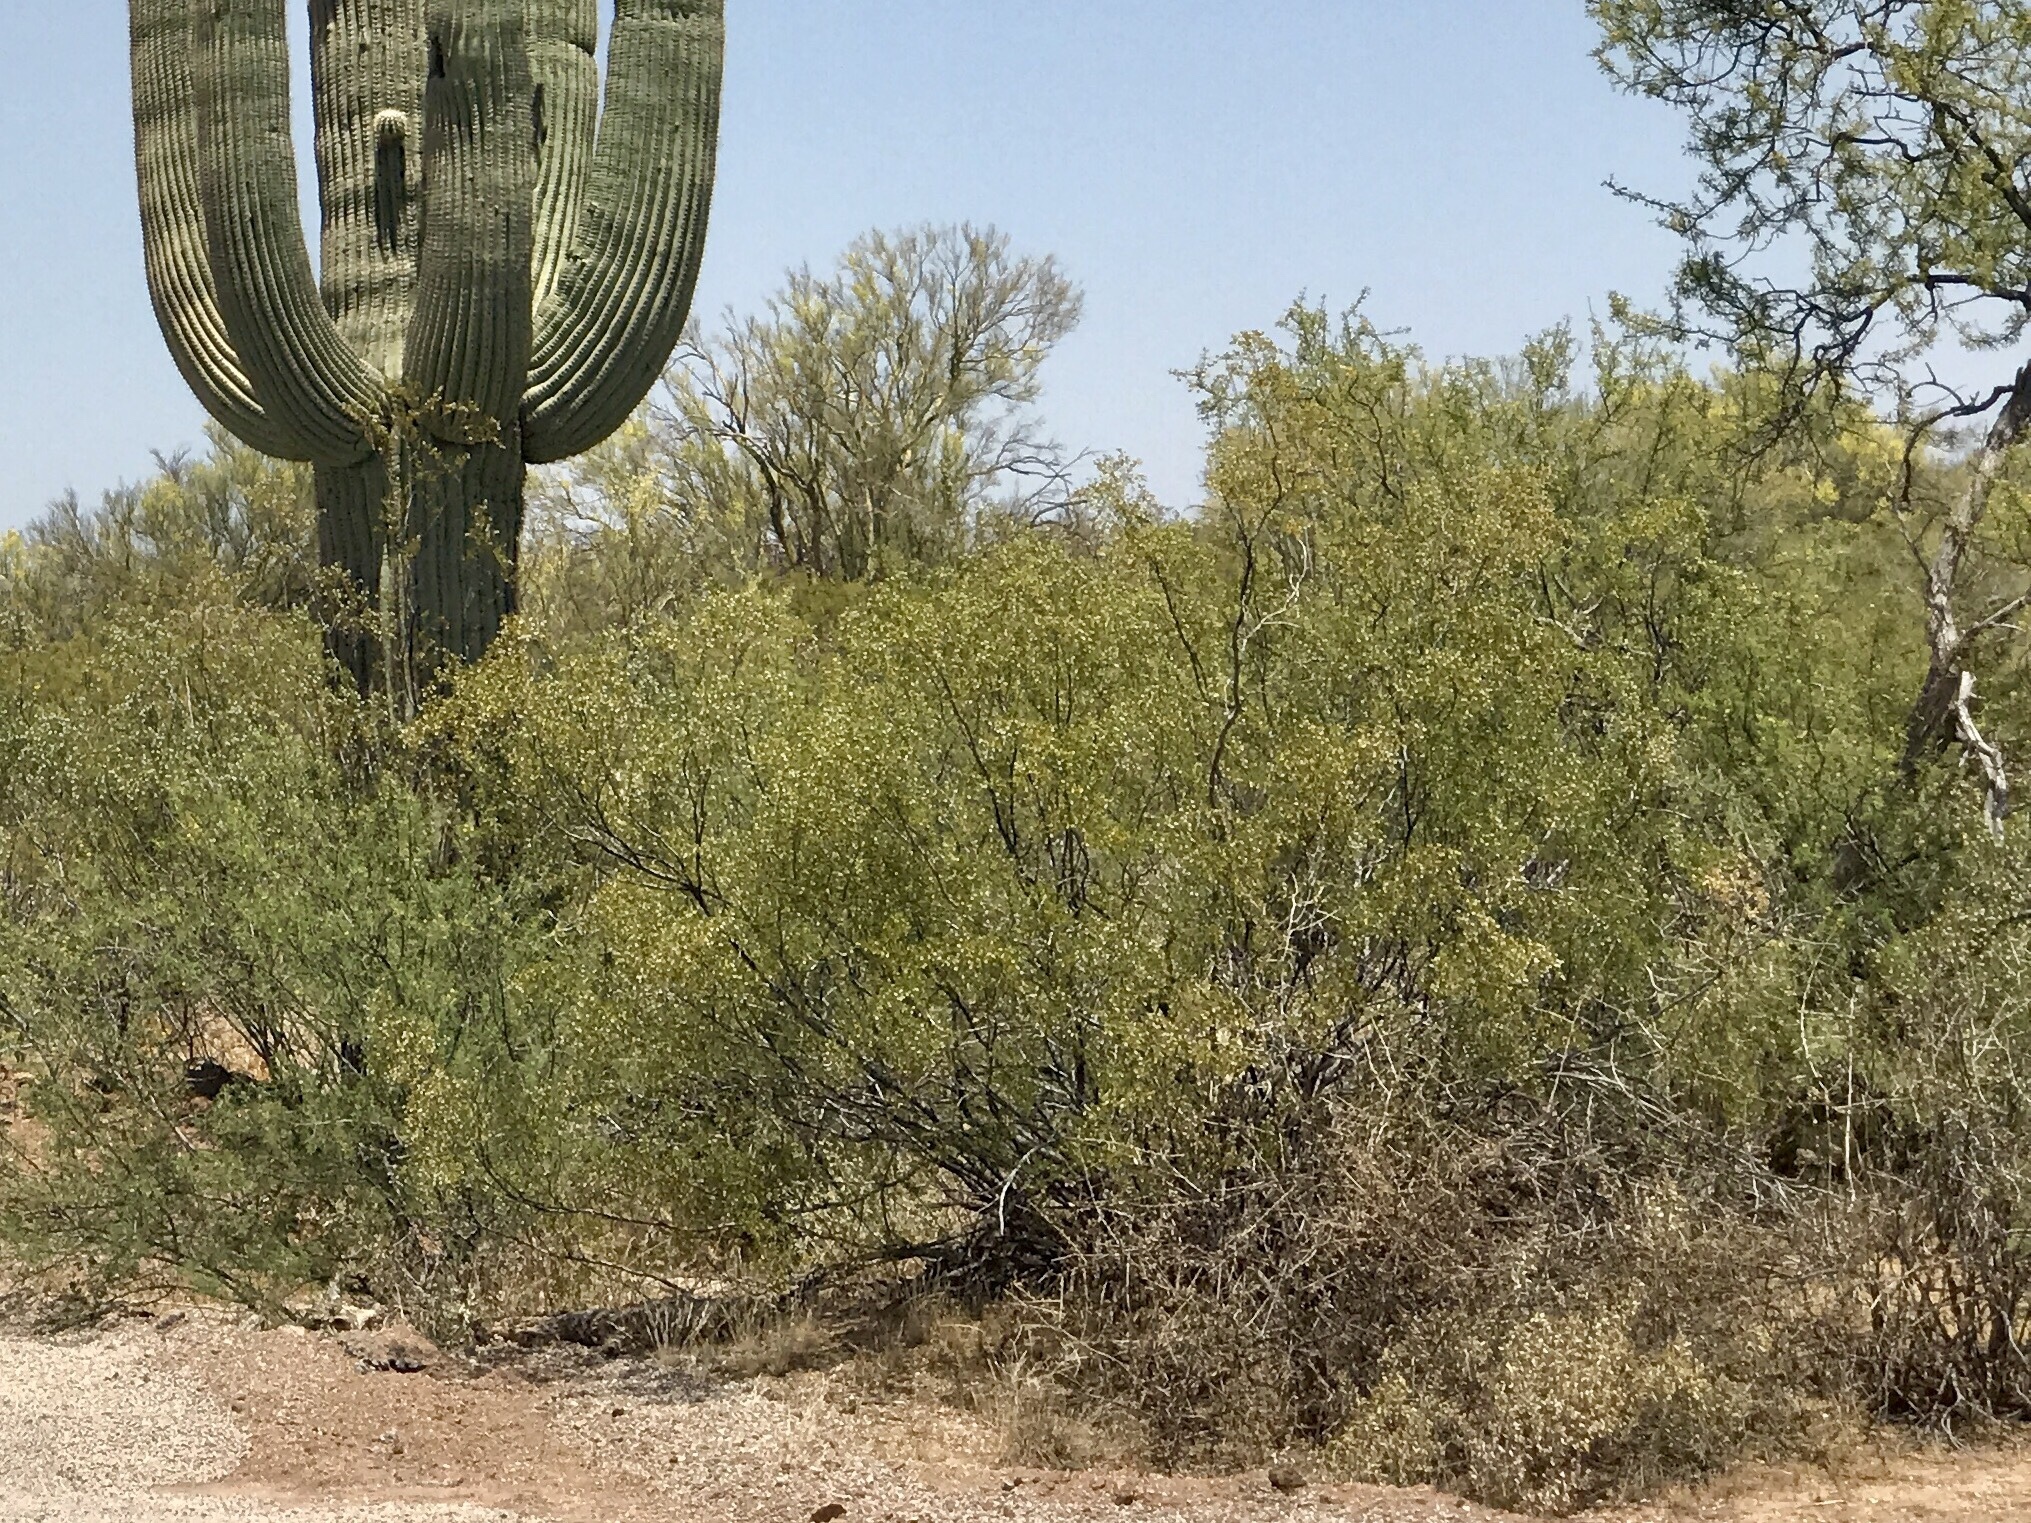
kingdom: Plantae
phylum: Tracheophyta
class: Magnoliopsida
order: Zygophyllales
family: Zygophyllaceae
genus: Larrea
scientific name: Larrea tridentata
